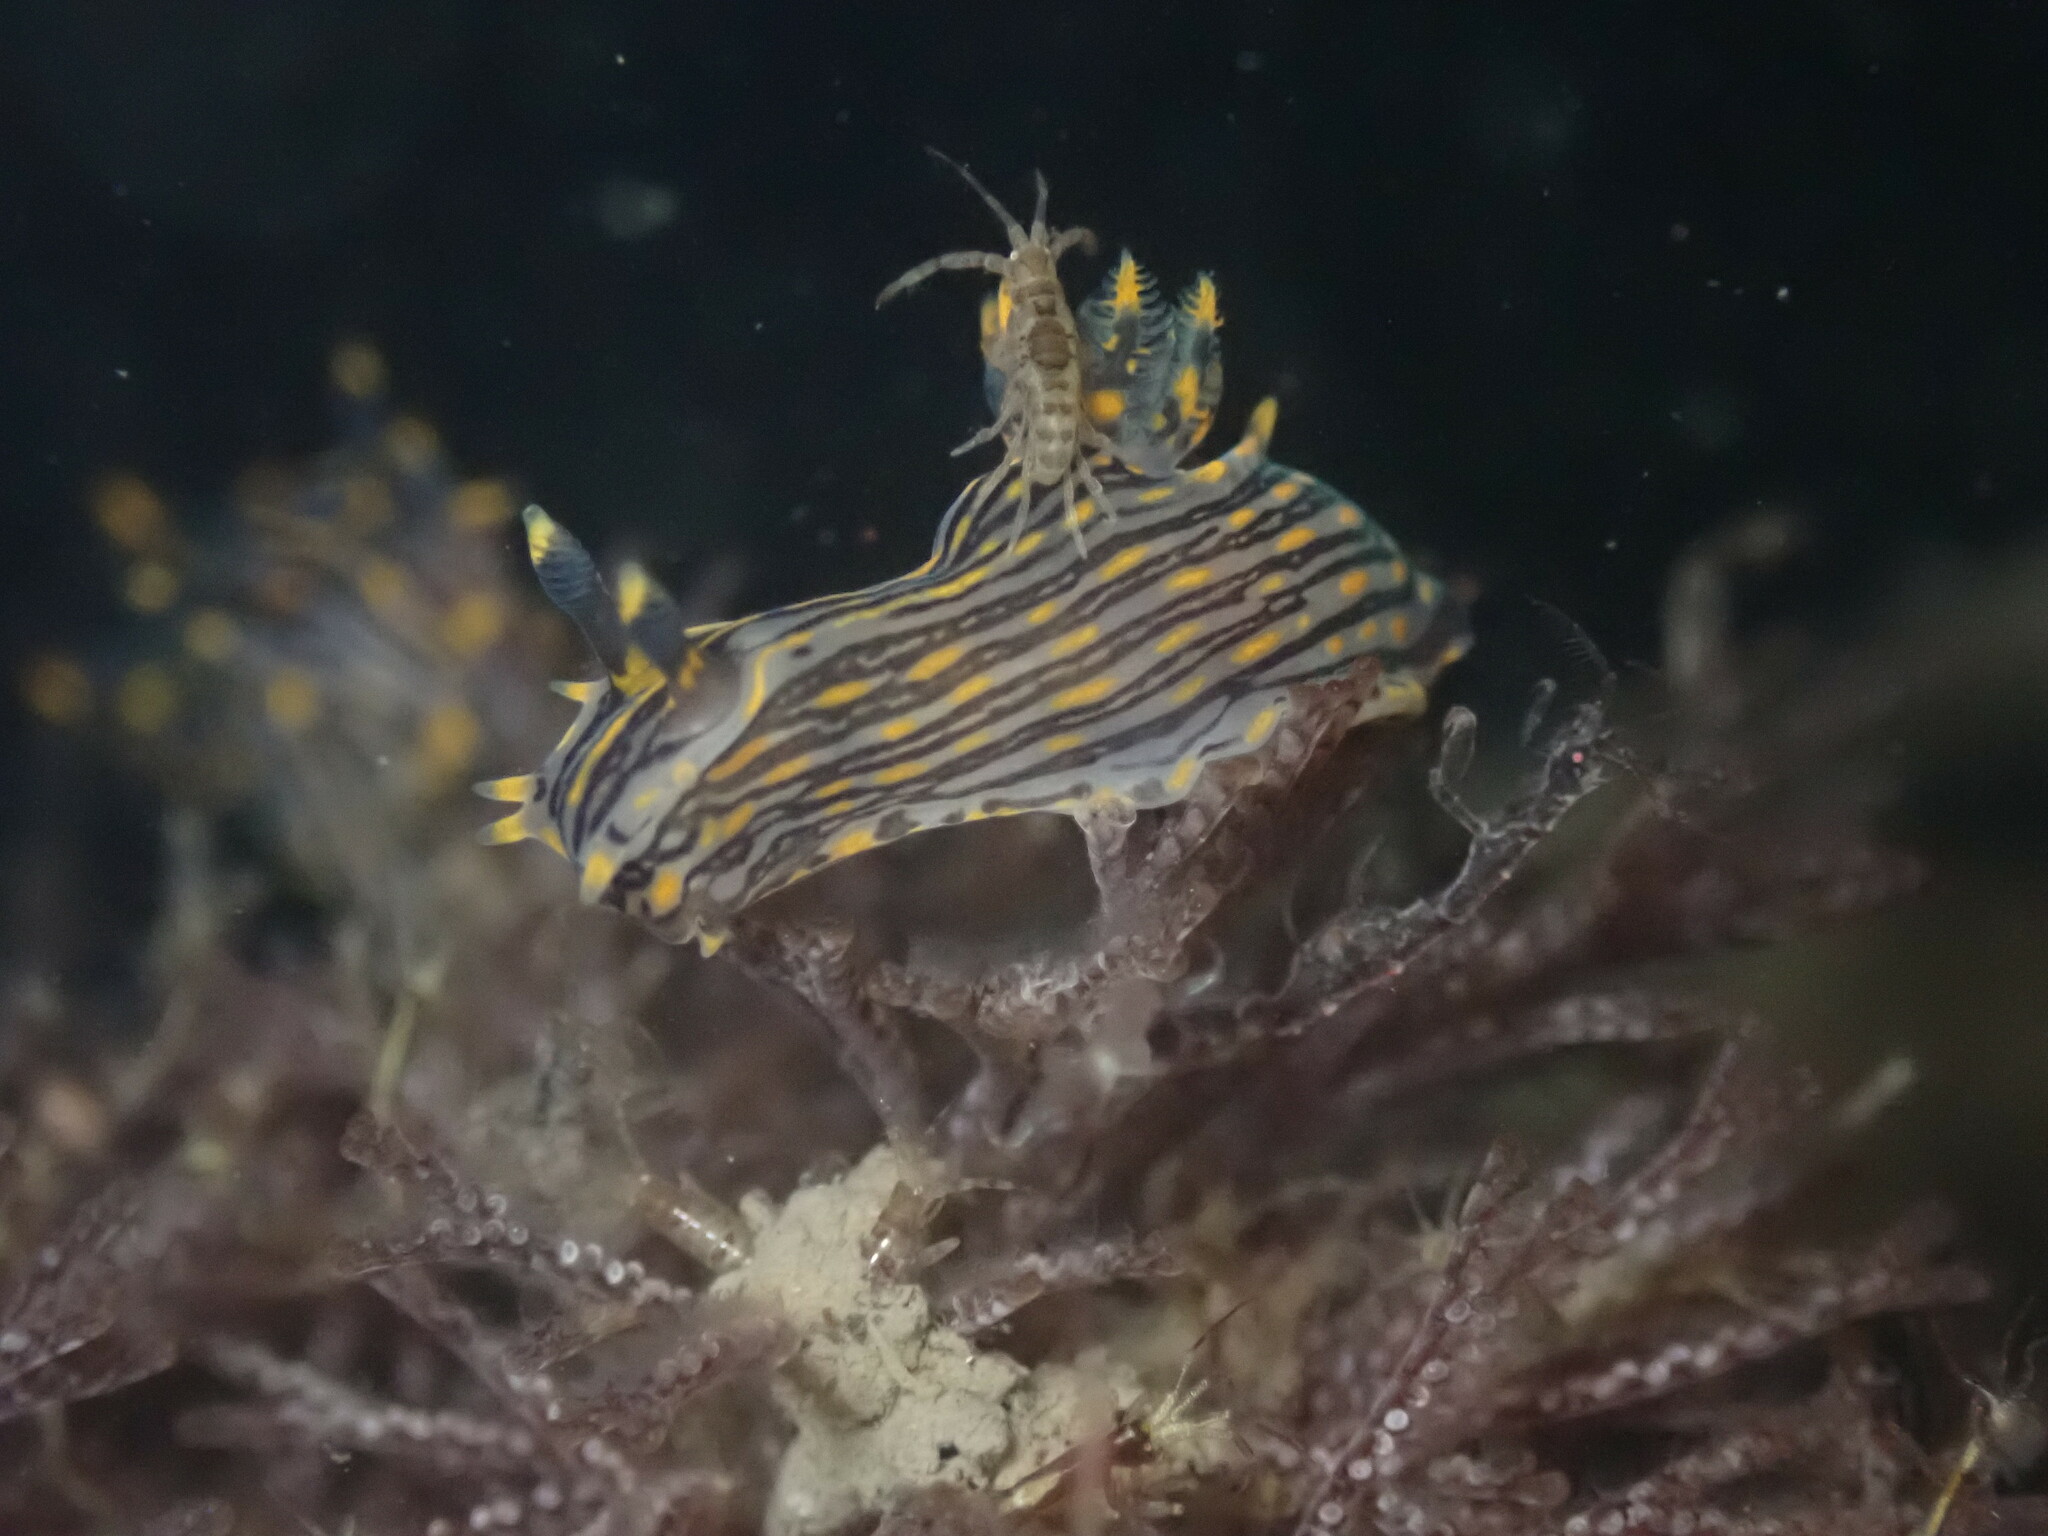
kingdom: Animalia
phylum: Mollusca
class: Gastropoda
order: Nudibranchia
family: Polyceridae
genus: Polycera
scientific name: Polycera atra
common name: Orange-spike polycera
